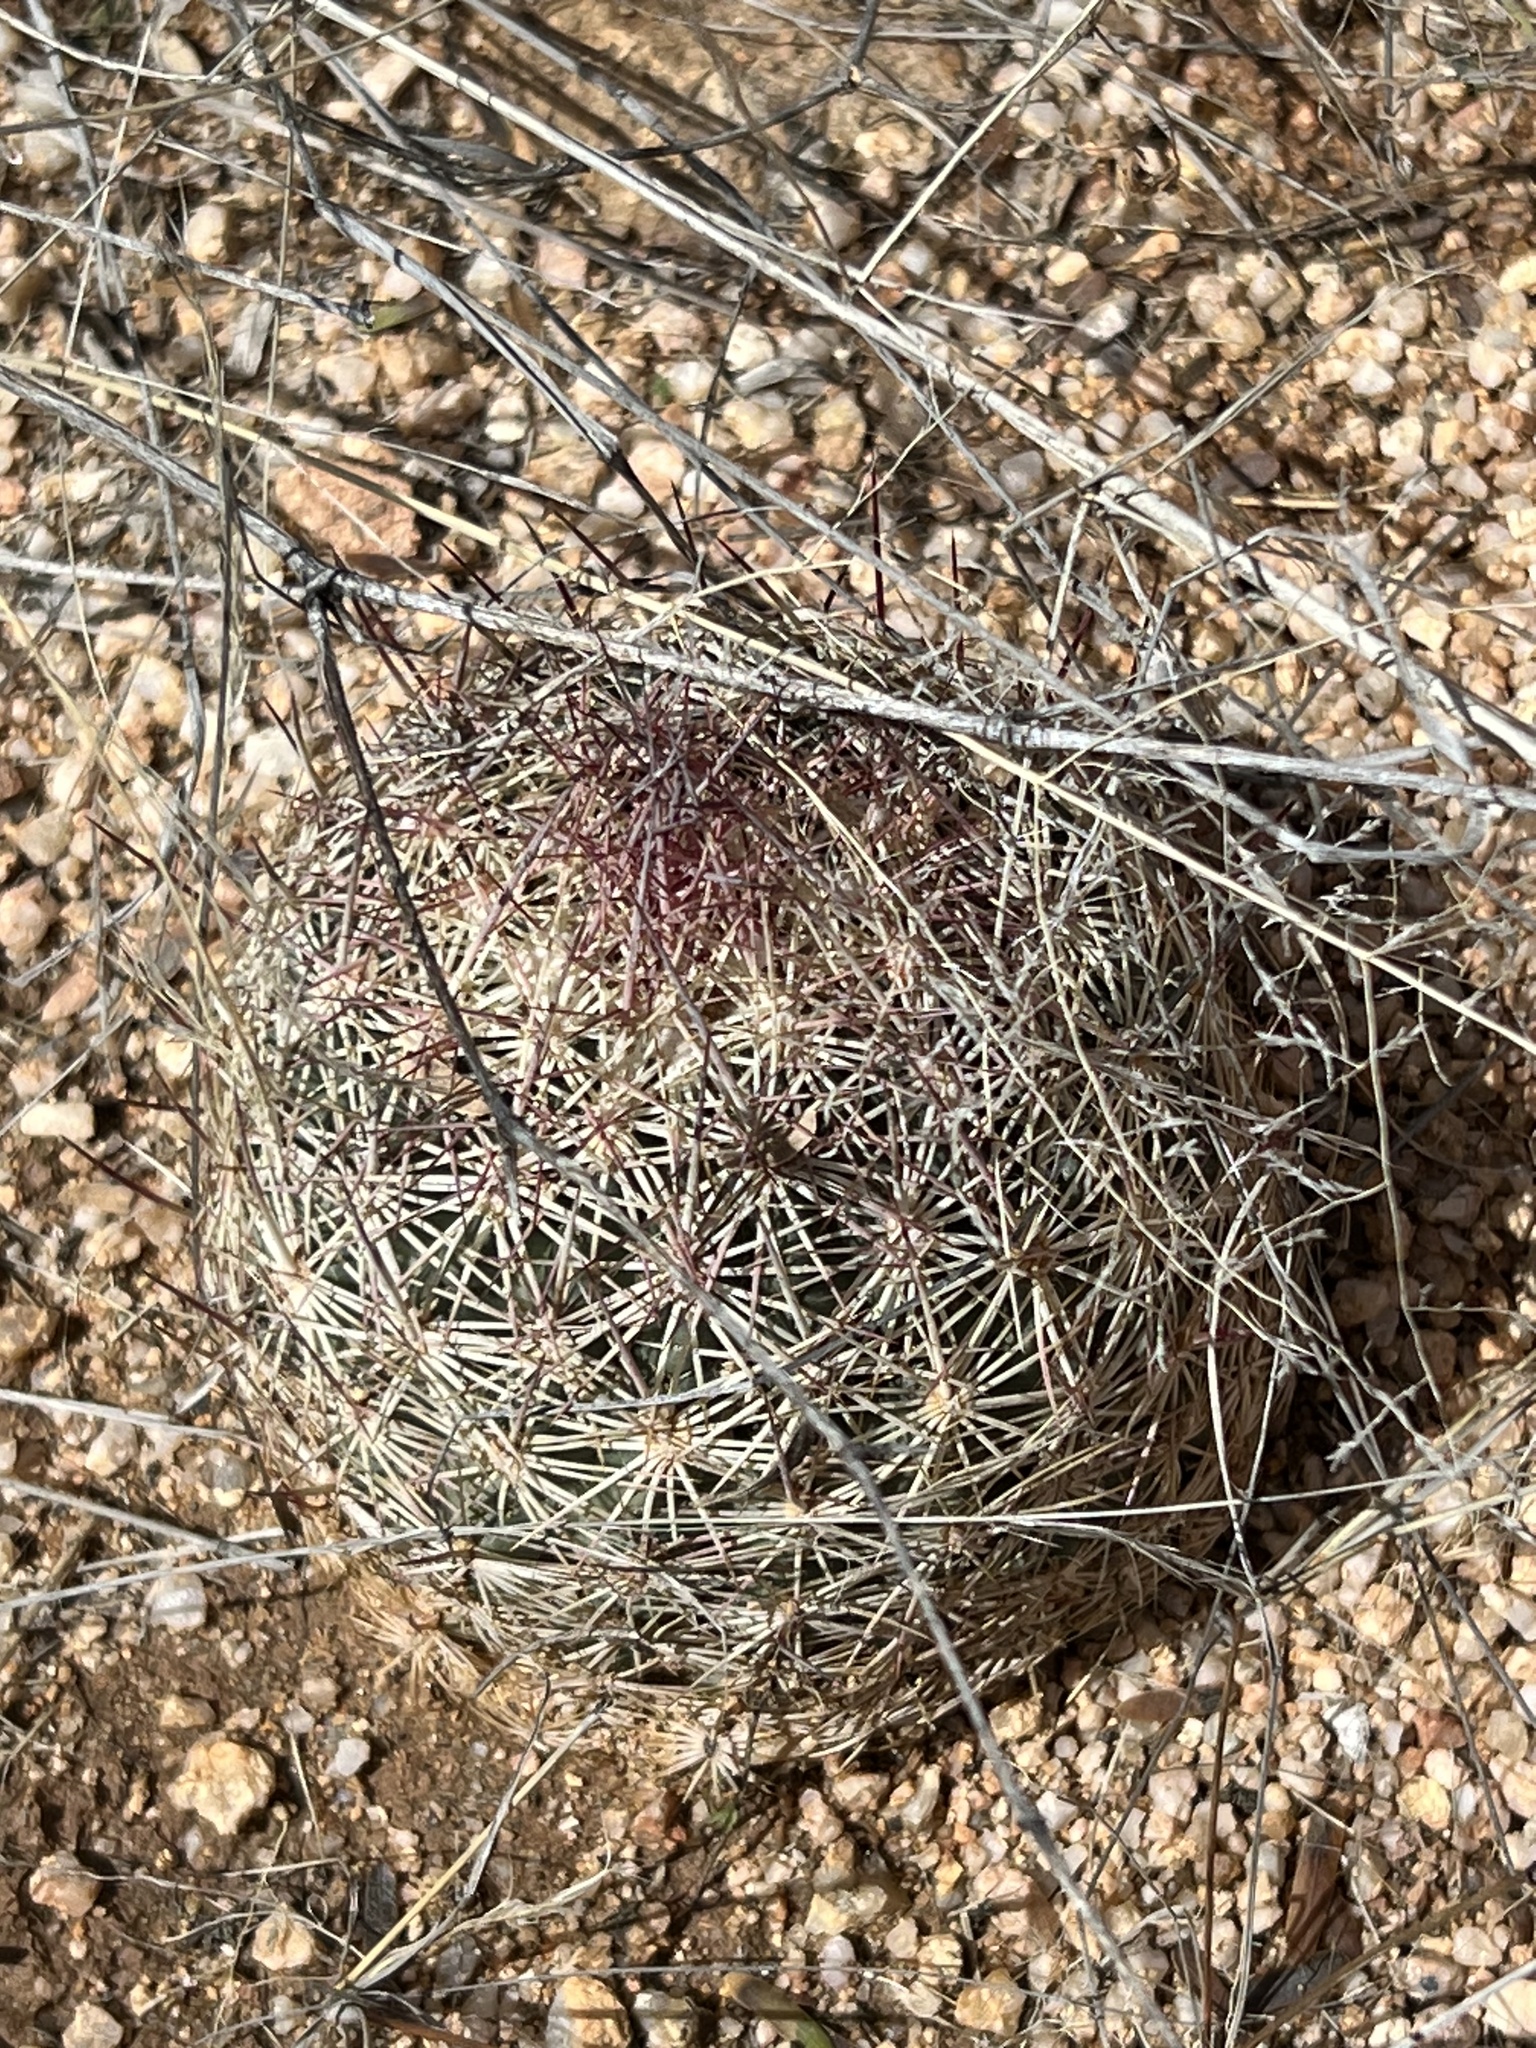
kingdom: Plantae
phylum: Tracheophyta
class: Magnoliopsida
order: Caryophyllales
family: Cactaceae
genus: Sclerocactus
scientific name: Sclerocactus johnsonii
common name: Eight-spine fishhook cactus
